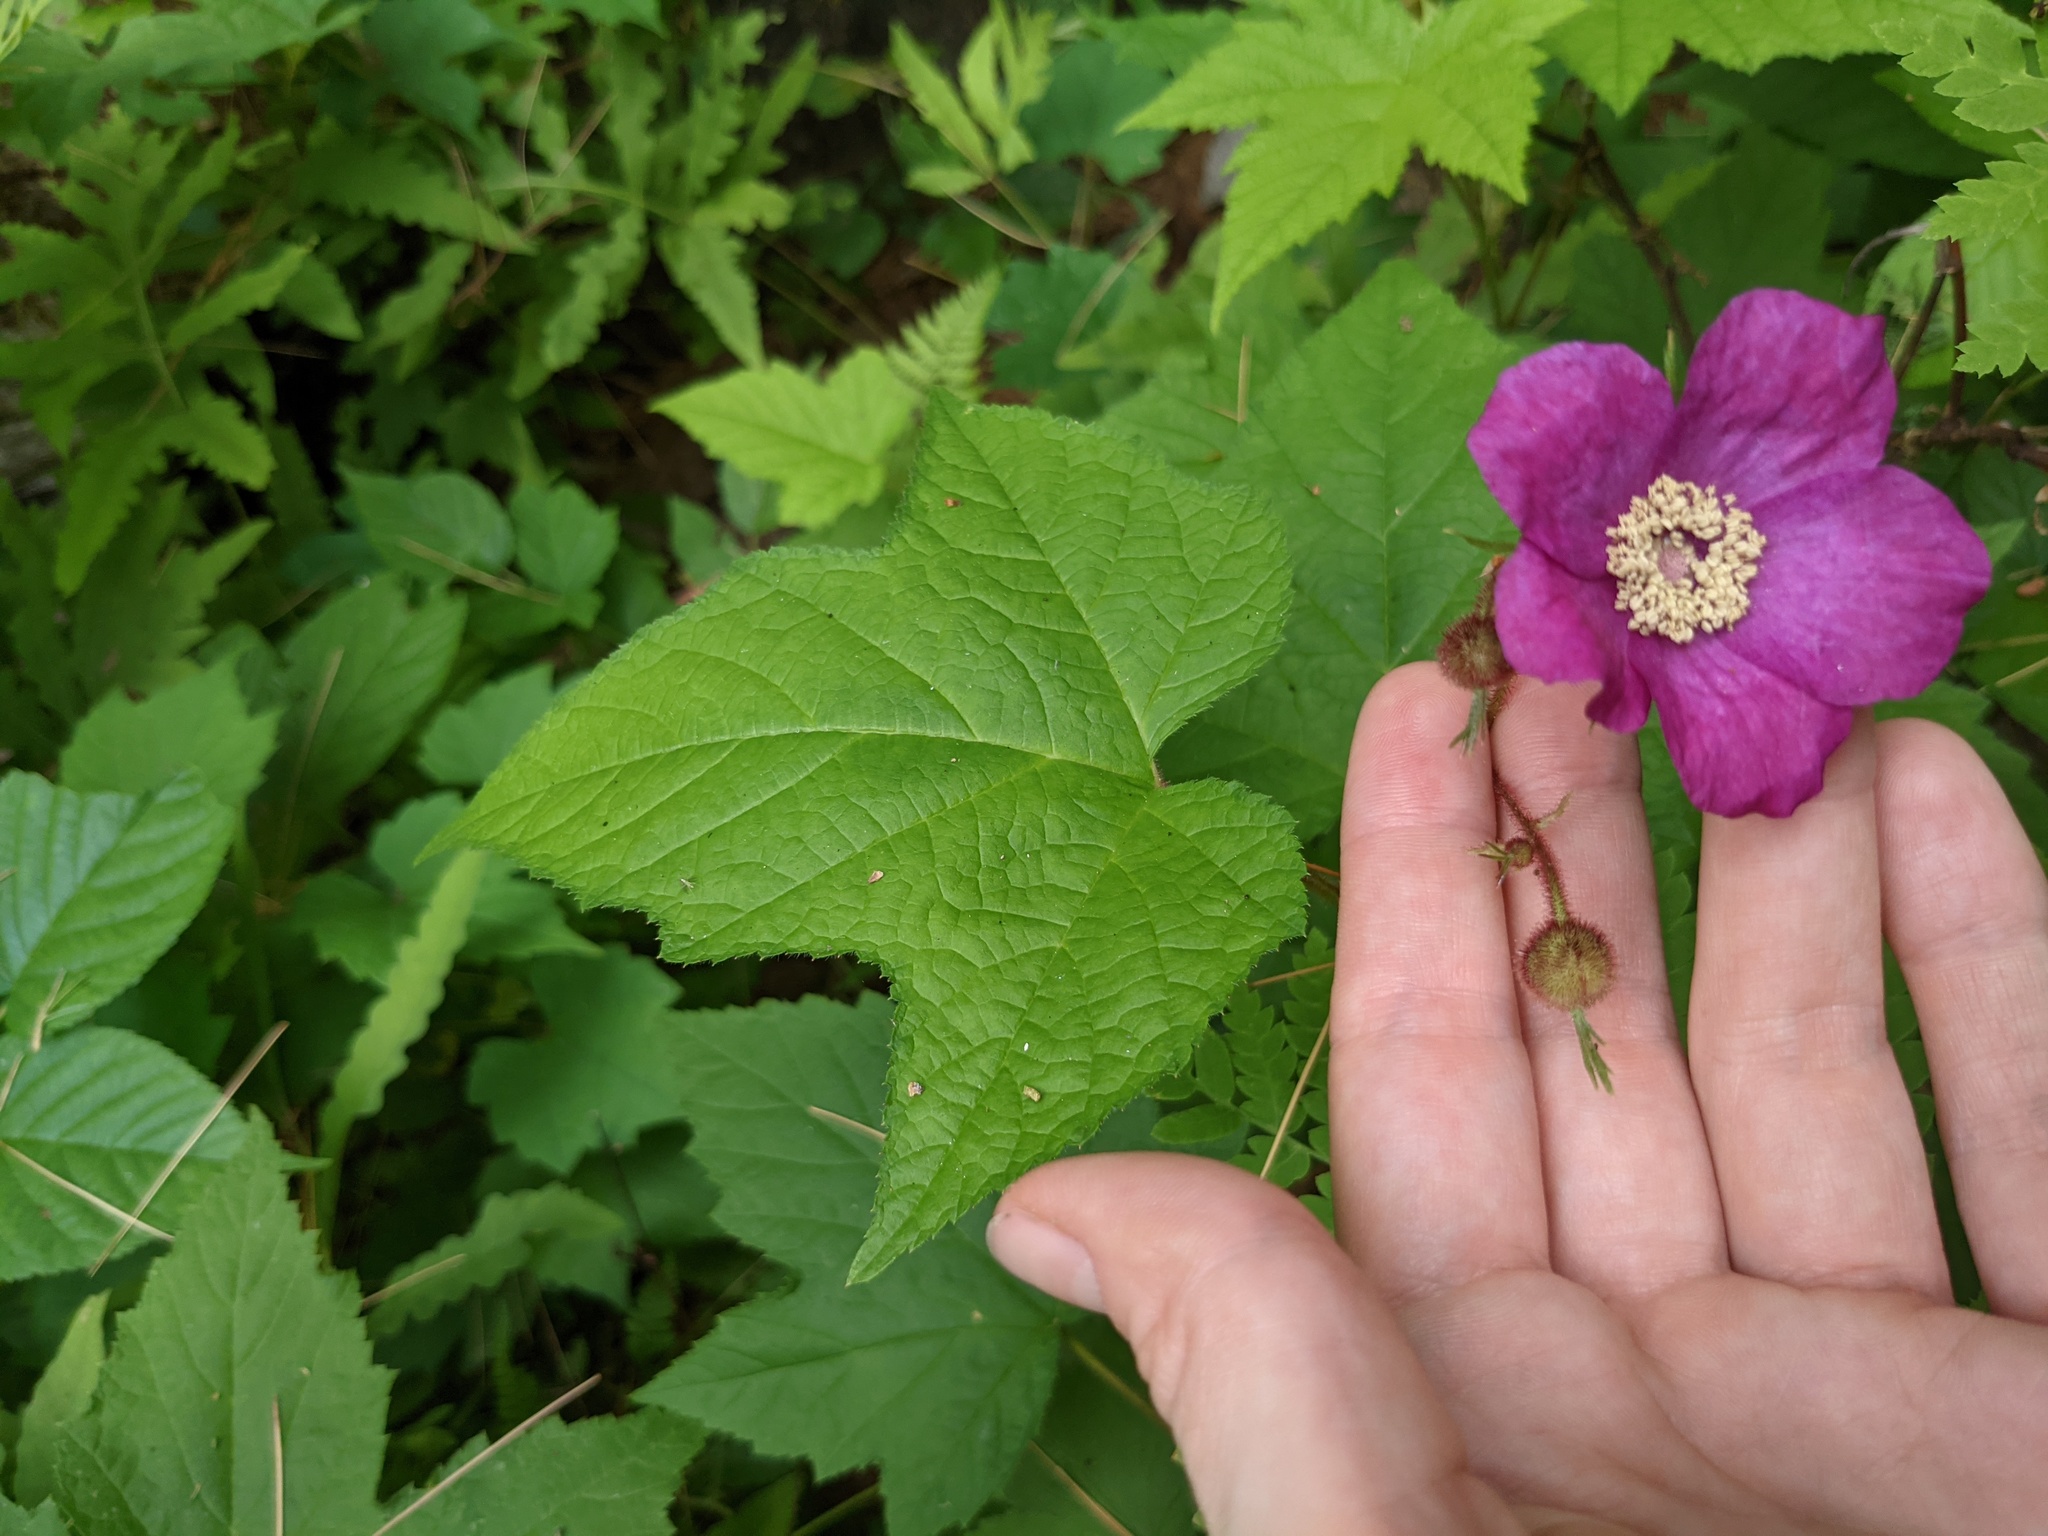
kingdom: Plantae
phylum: Tracheophyta
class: Magnoliopsida
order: Rosales
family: Rosaceae
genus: Rubus
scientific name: Rubus odoratus
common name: Purple-flowered raspberry
